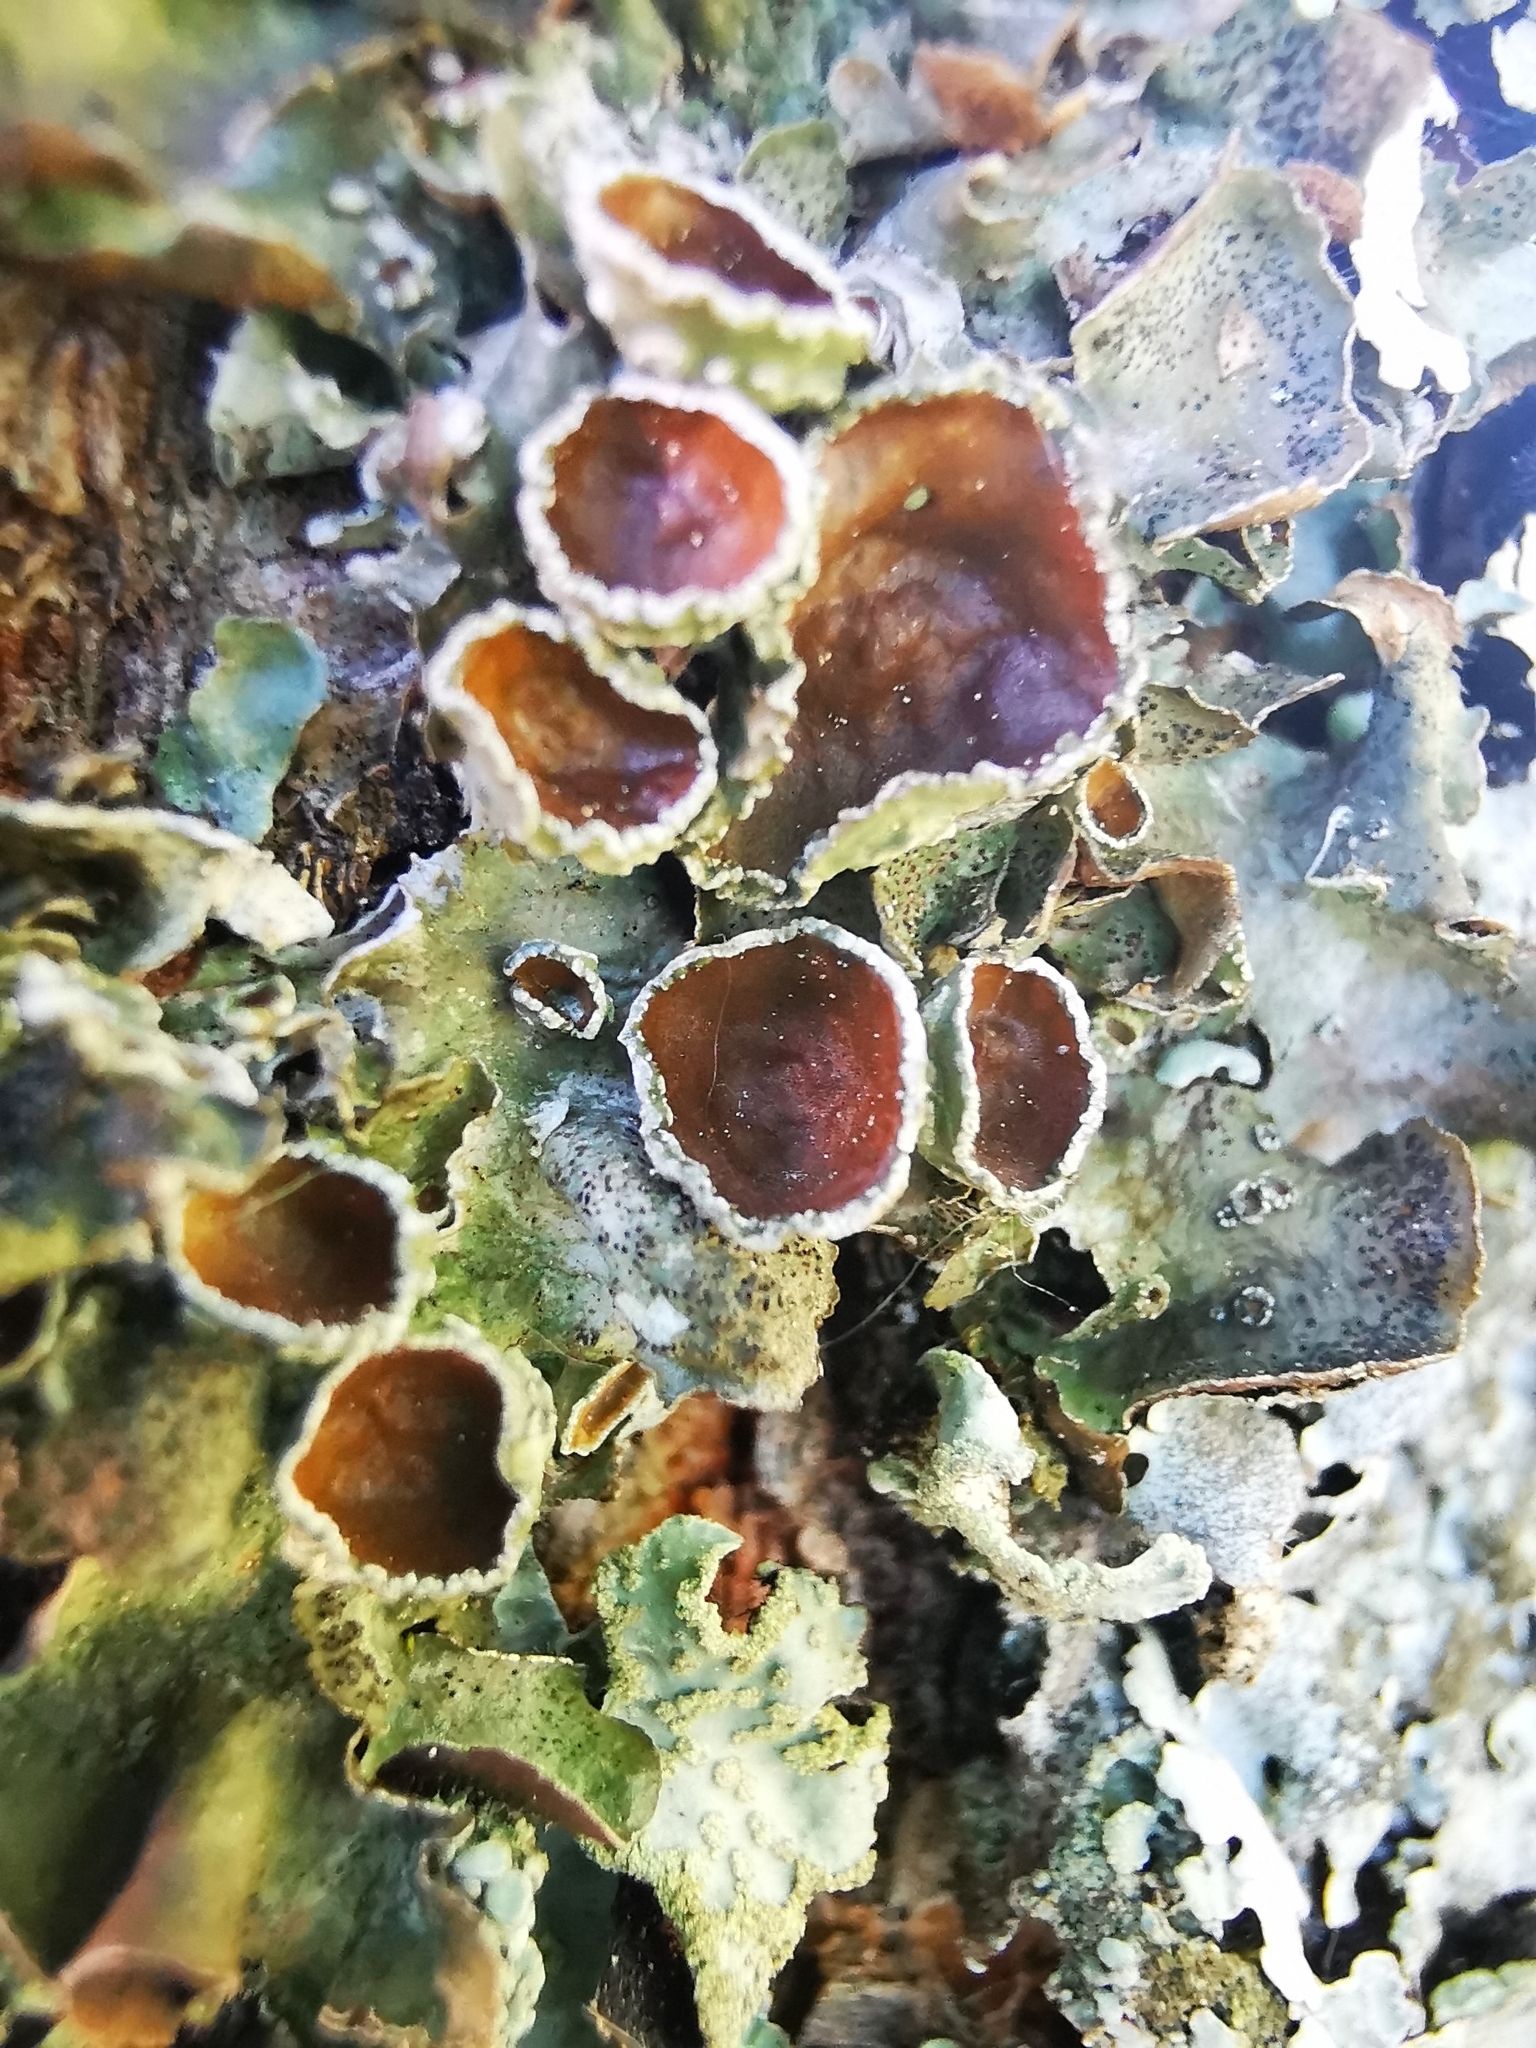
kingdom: Fungi
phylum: Ascomycota
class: Lecanoromycetes
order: Lecanorales
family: Parmeliaceae
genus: Pleurosticta
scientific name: Pleurosticta acetabulum
